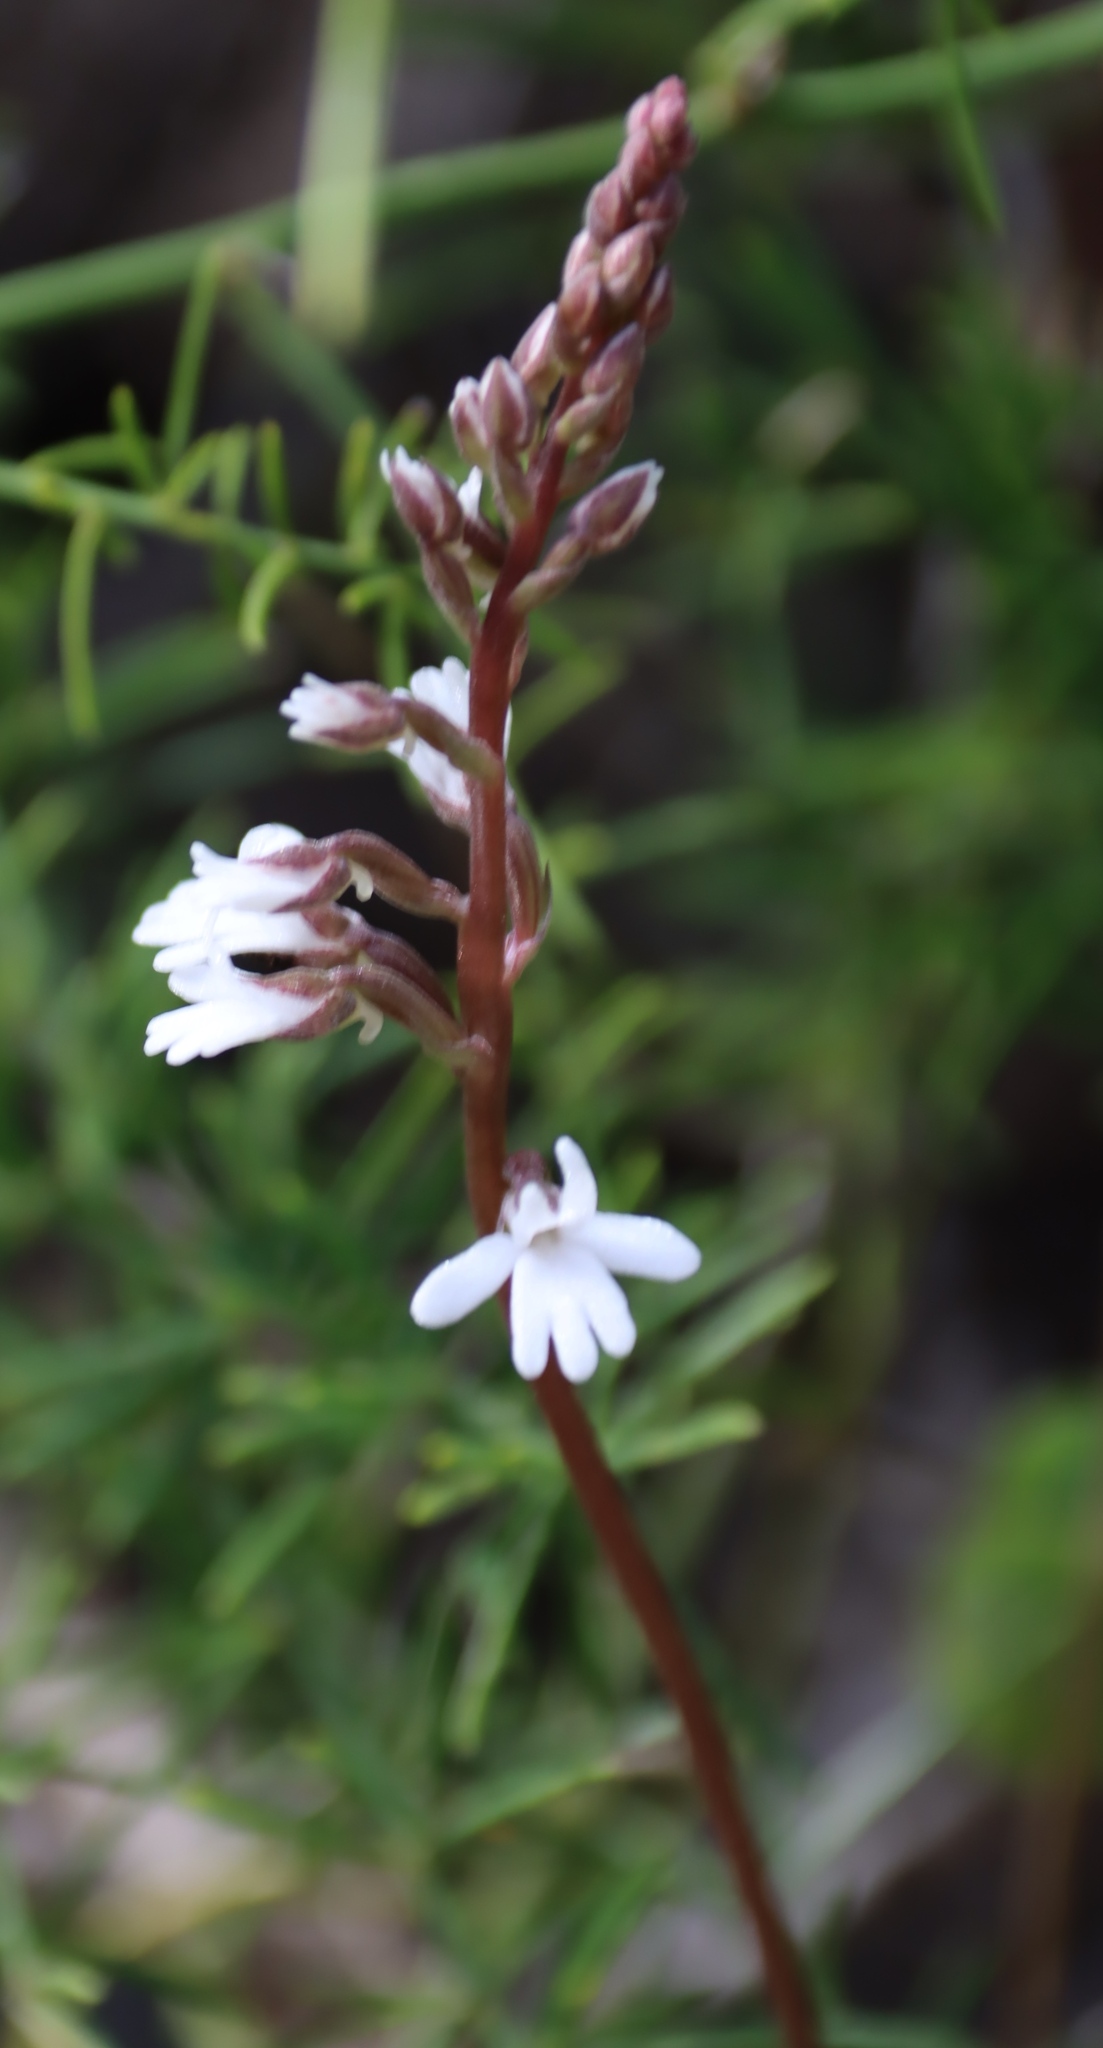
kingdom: Plantae
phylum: Tracheophyta
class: Liliopsida
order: Asparagales
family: Orchidaceae
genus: Holothrix
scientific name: Holothrix parviflora
